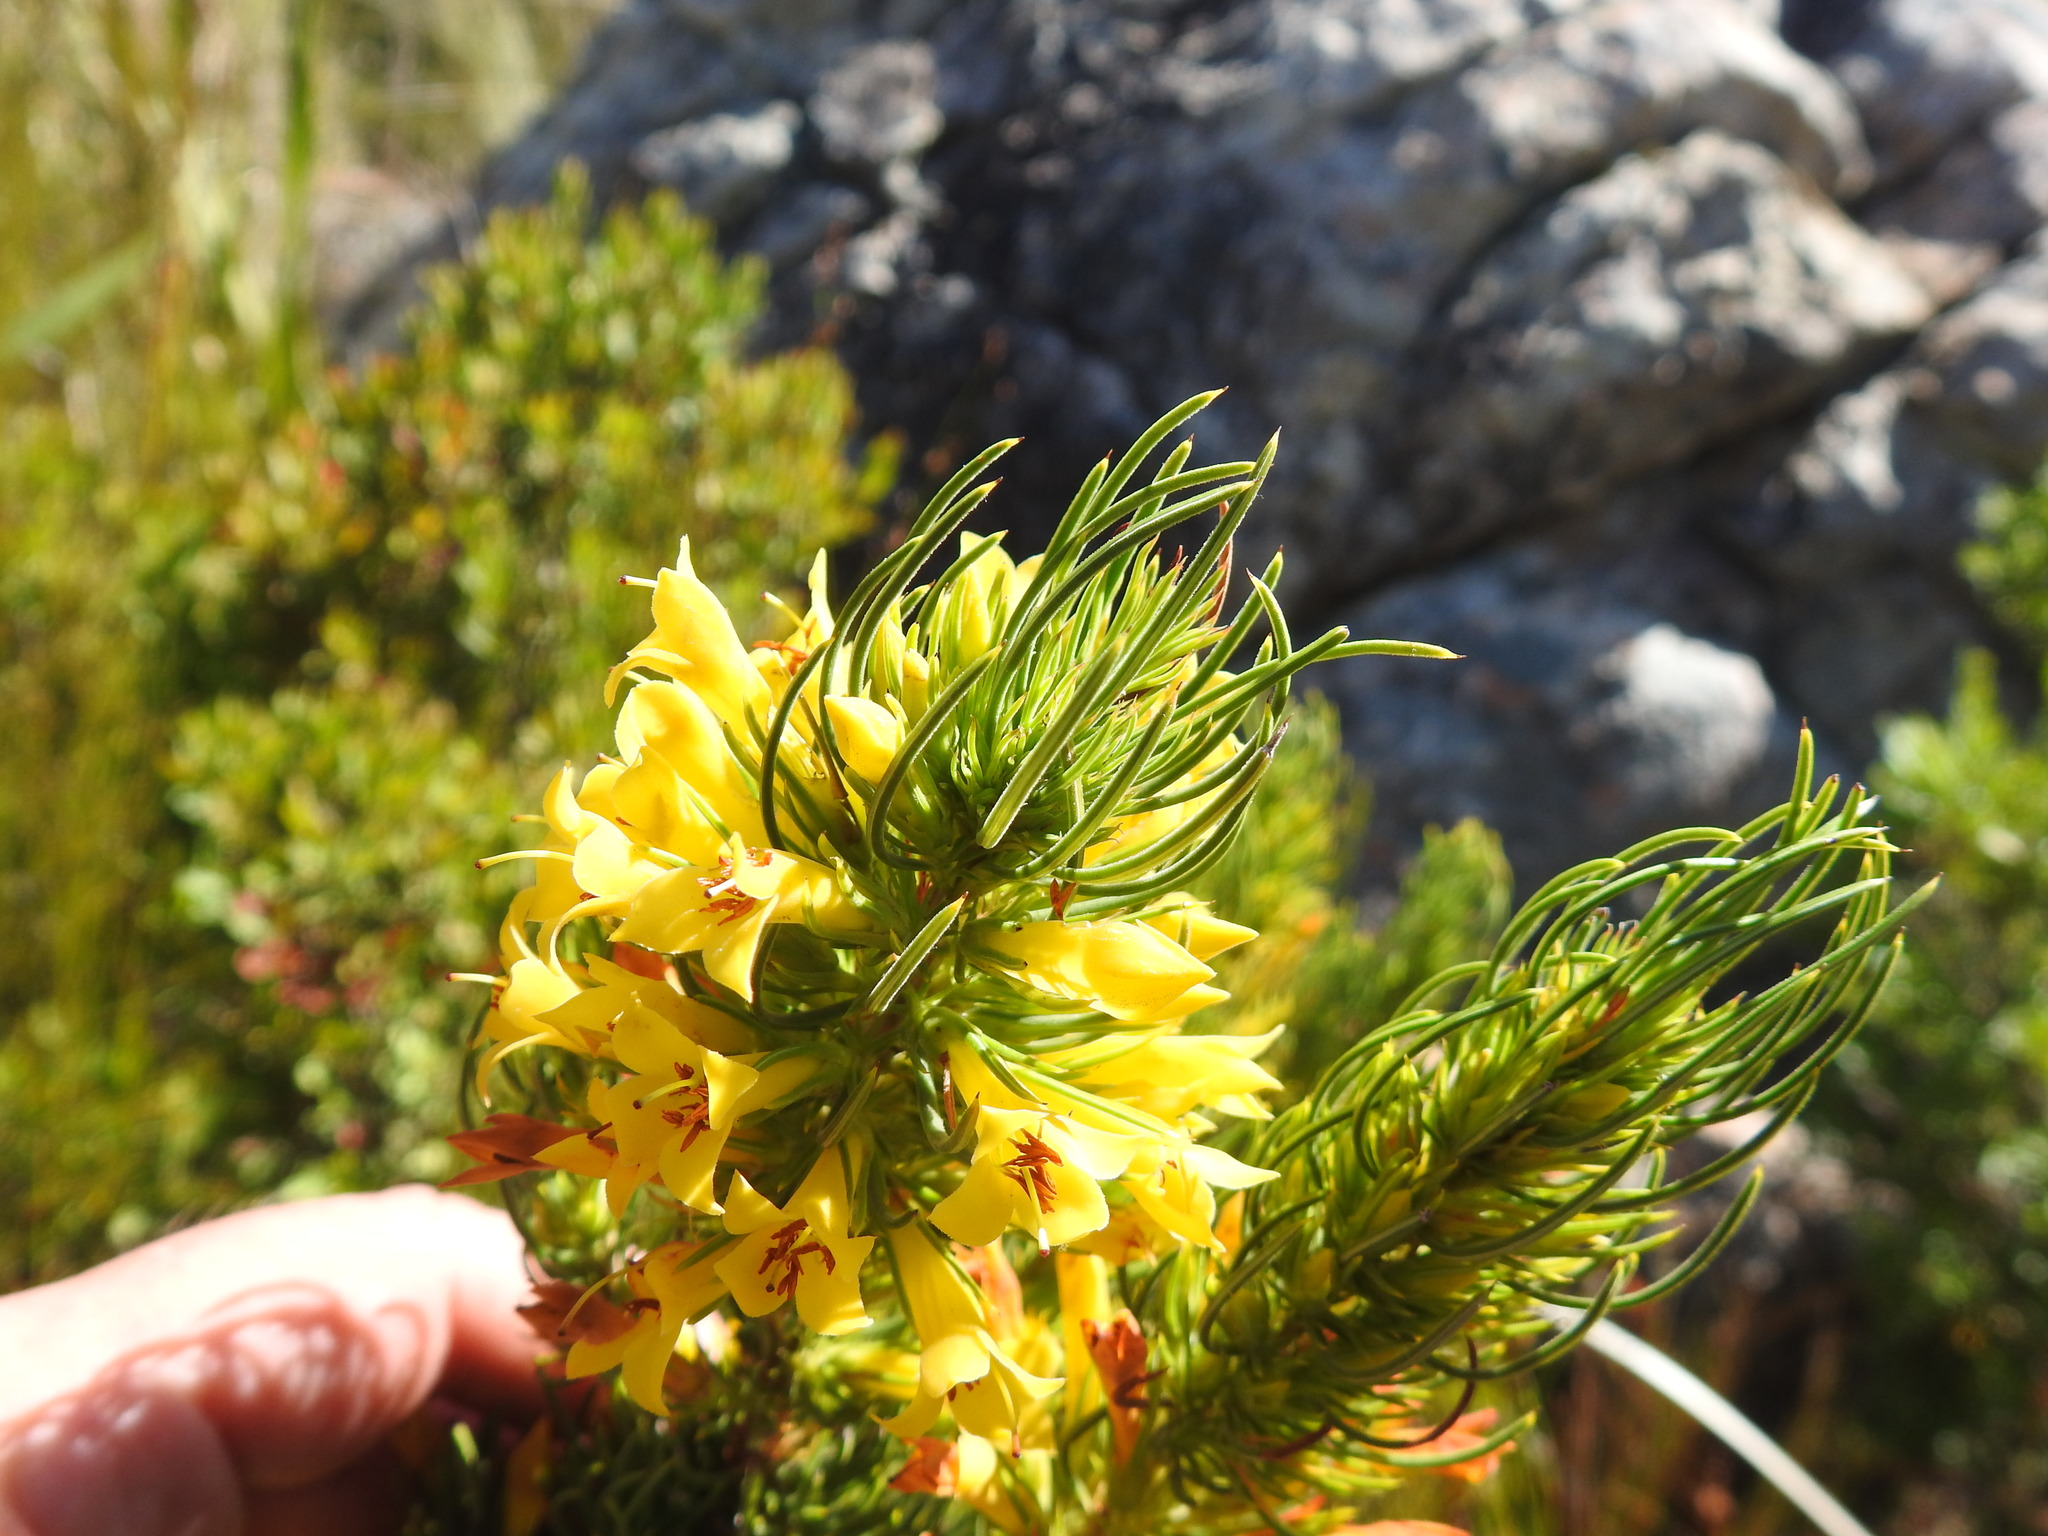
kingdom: Plantae
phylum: Tracheophyta
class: Magnoliopsida
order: Ericales
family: Ericaceae
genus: Erica
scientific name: Erica grandiflora
